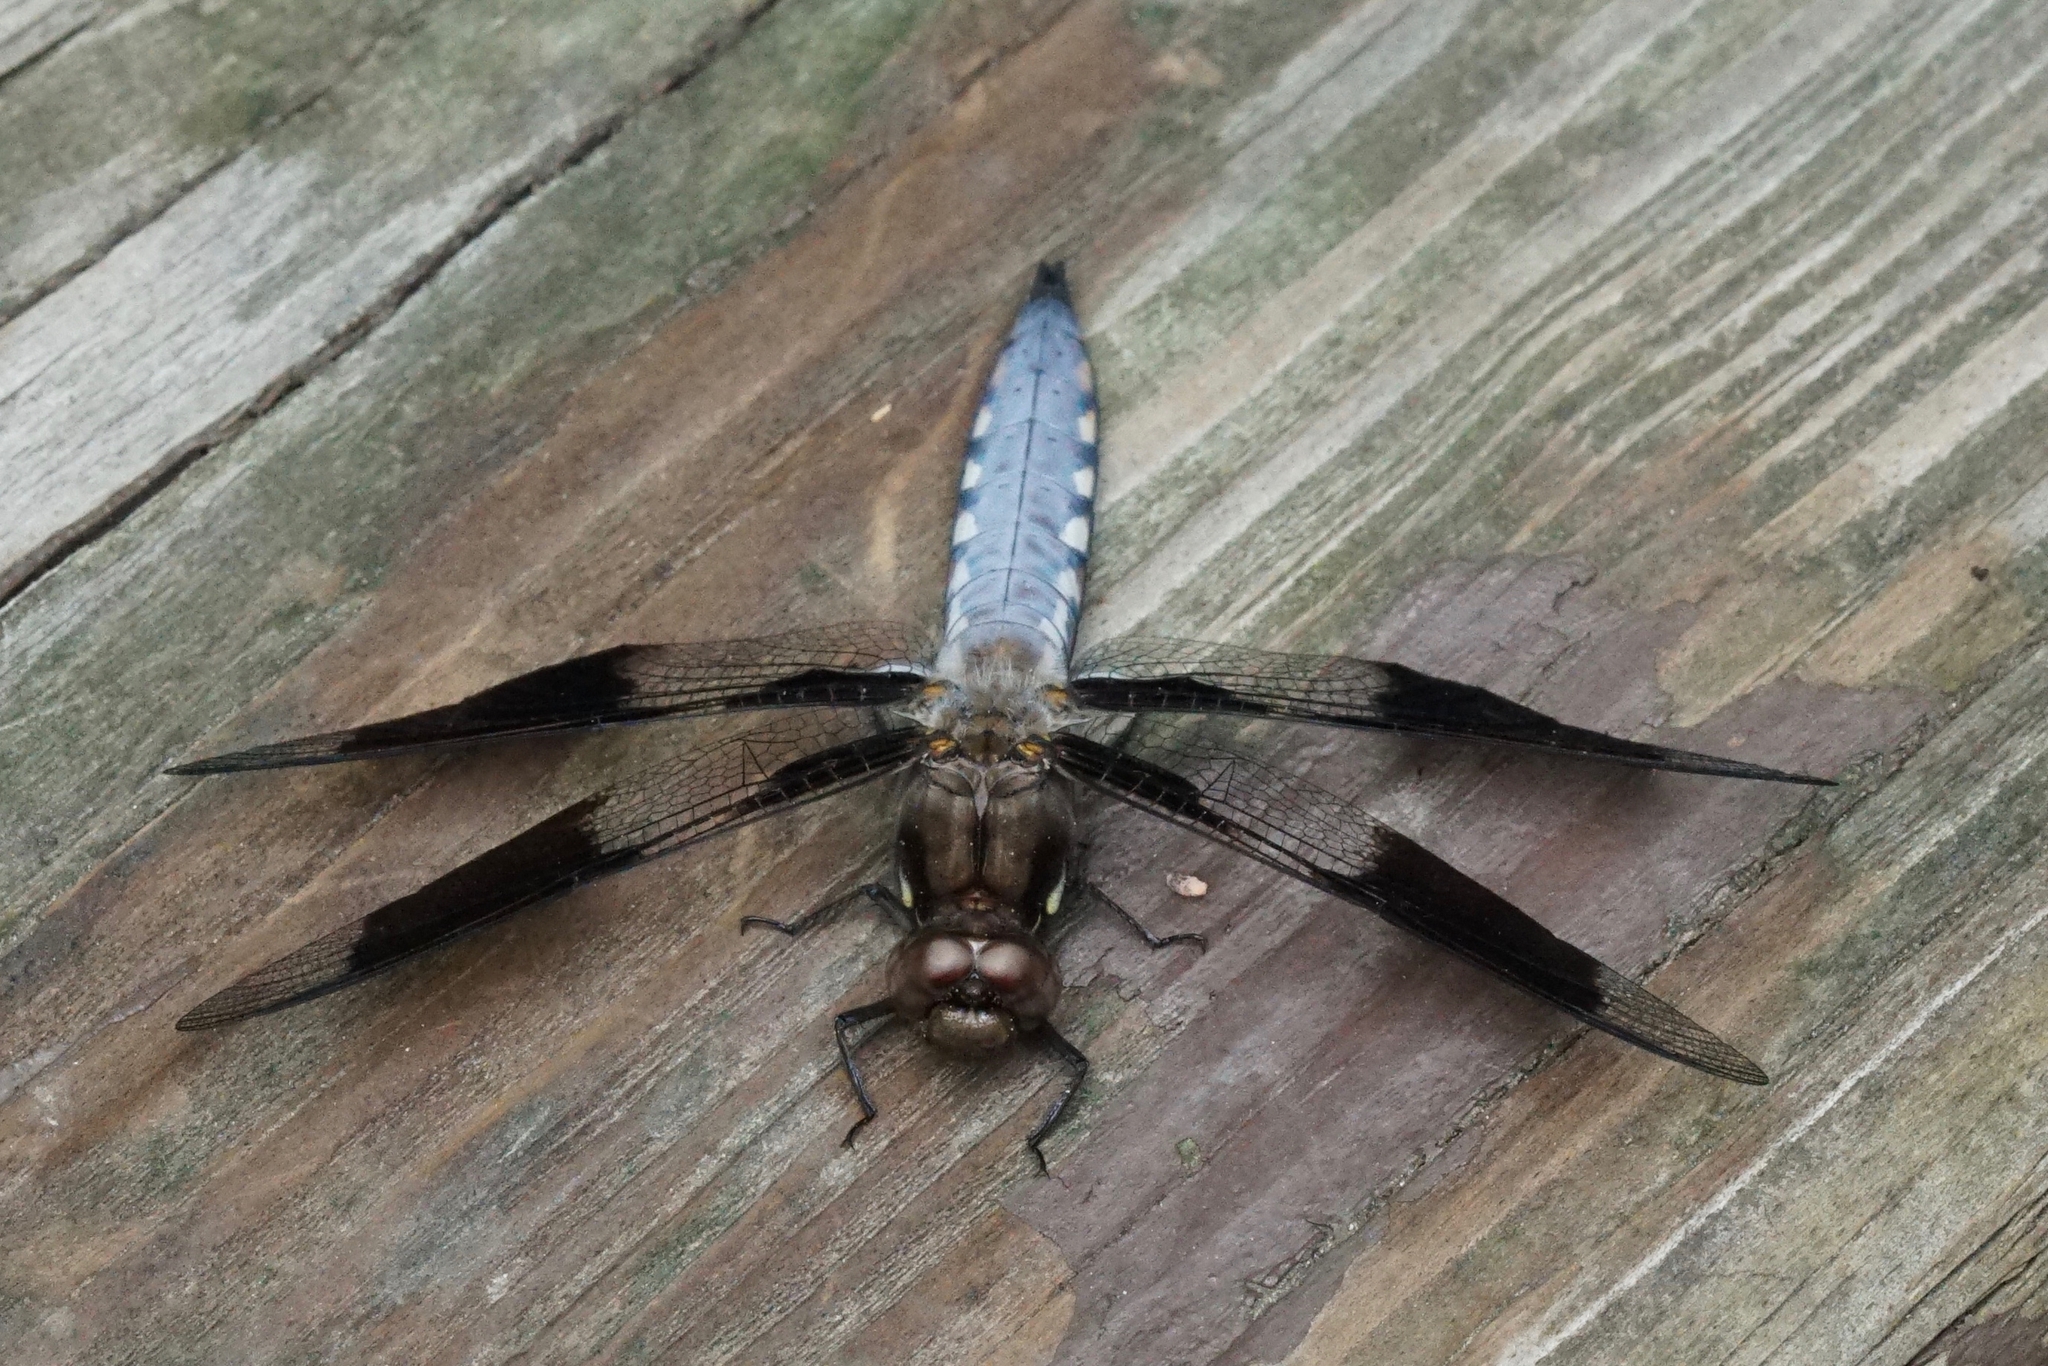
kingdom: Animalia
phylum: Arthropoda
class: Insecta
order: Odonata
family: Libellulidae
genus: Plathemis
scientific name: Plathemis lydia
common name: Common whitetail
